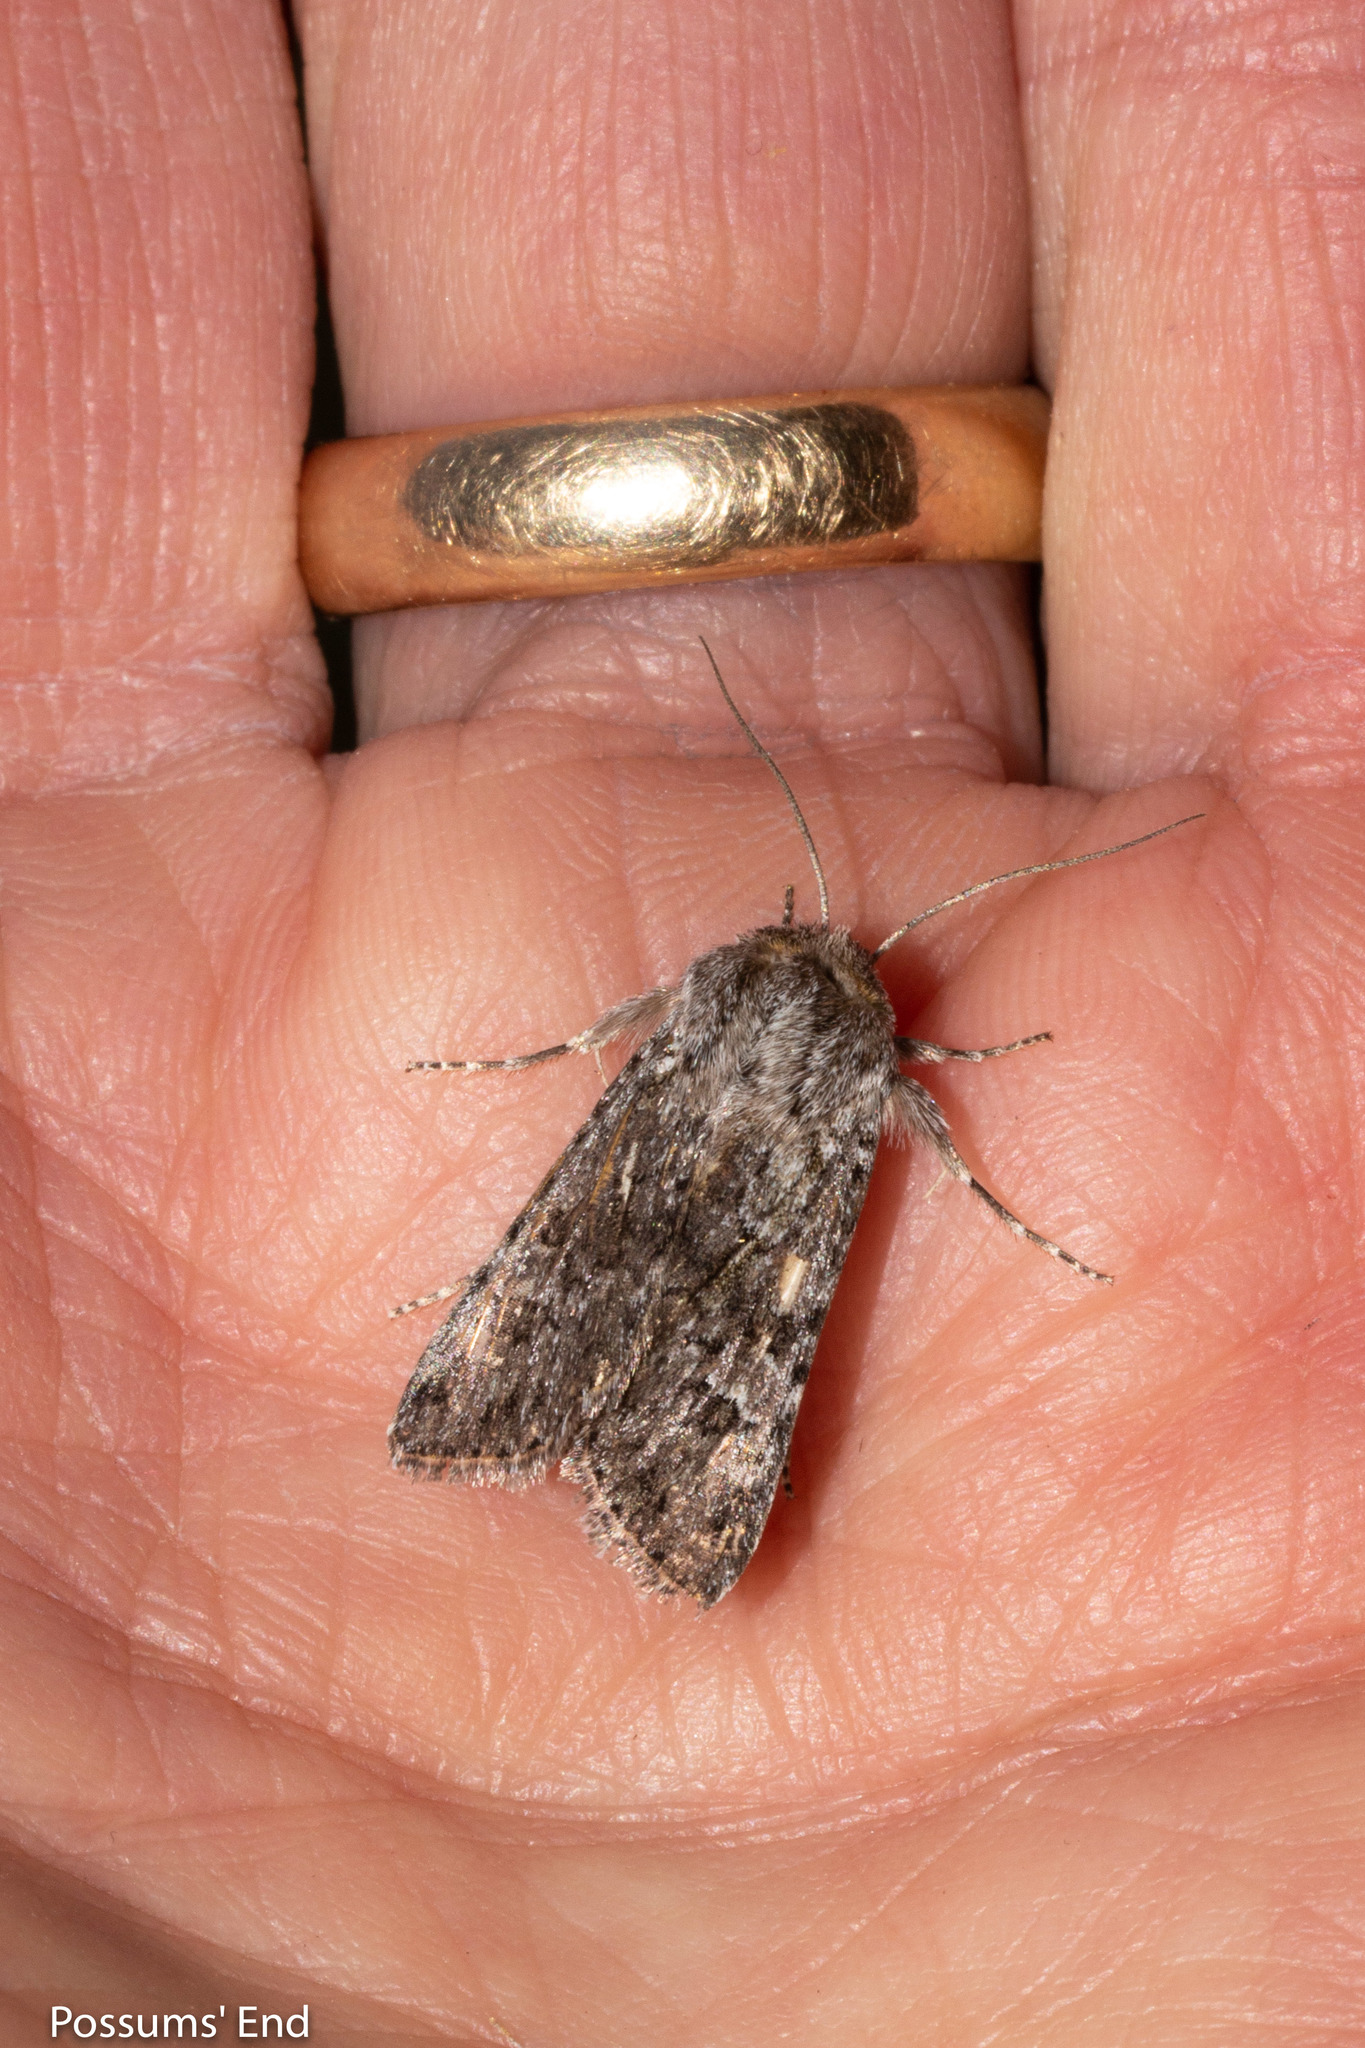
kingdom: Animalia
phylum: Arthropoda
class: Insecta
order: Lepidoptera
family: Noctuidae
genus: Physetica
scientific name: Physetica cucullina
